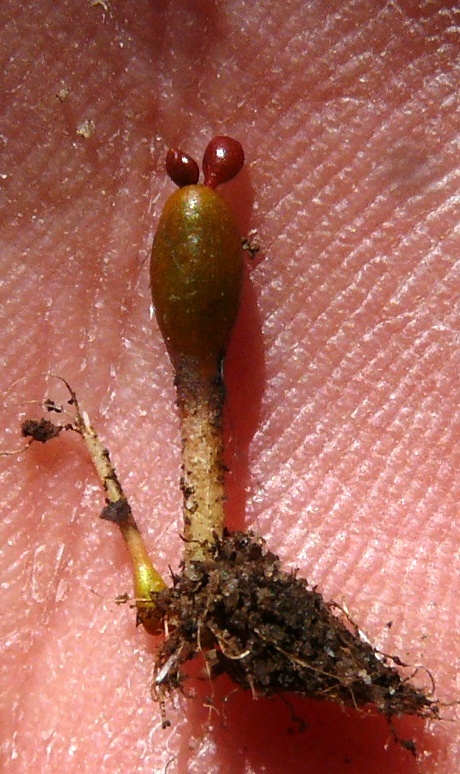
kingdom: Plantae
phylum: Tracheophyta
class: Magnoliopsida
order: Saxifragales
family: Crassulaceae
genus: Crassula
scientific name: Crassula aphylla
